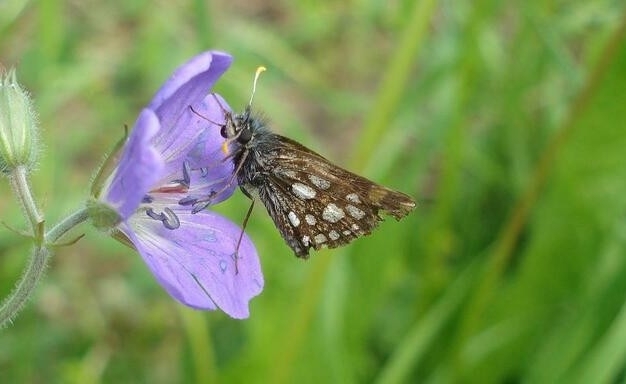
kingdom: Animalia
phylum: Arthropoda
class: Insecta
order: Lepidoptera
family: Hesperiidae
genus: Carterocephalus
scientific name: Carterocephalus palaemon
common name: Chequered skipper
